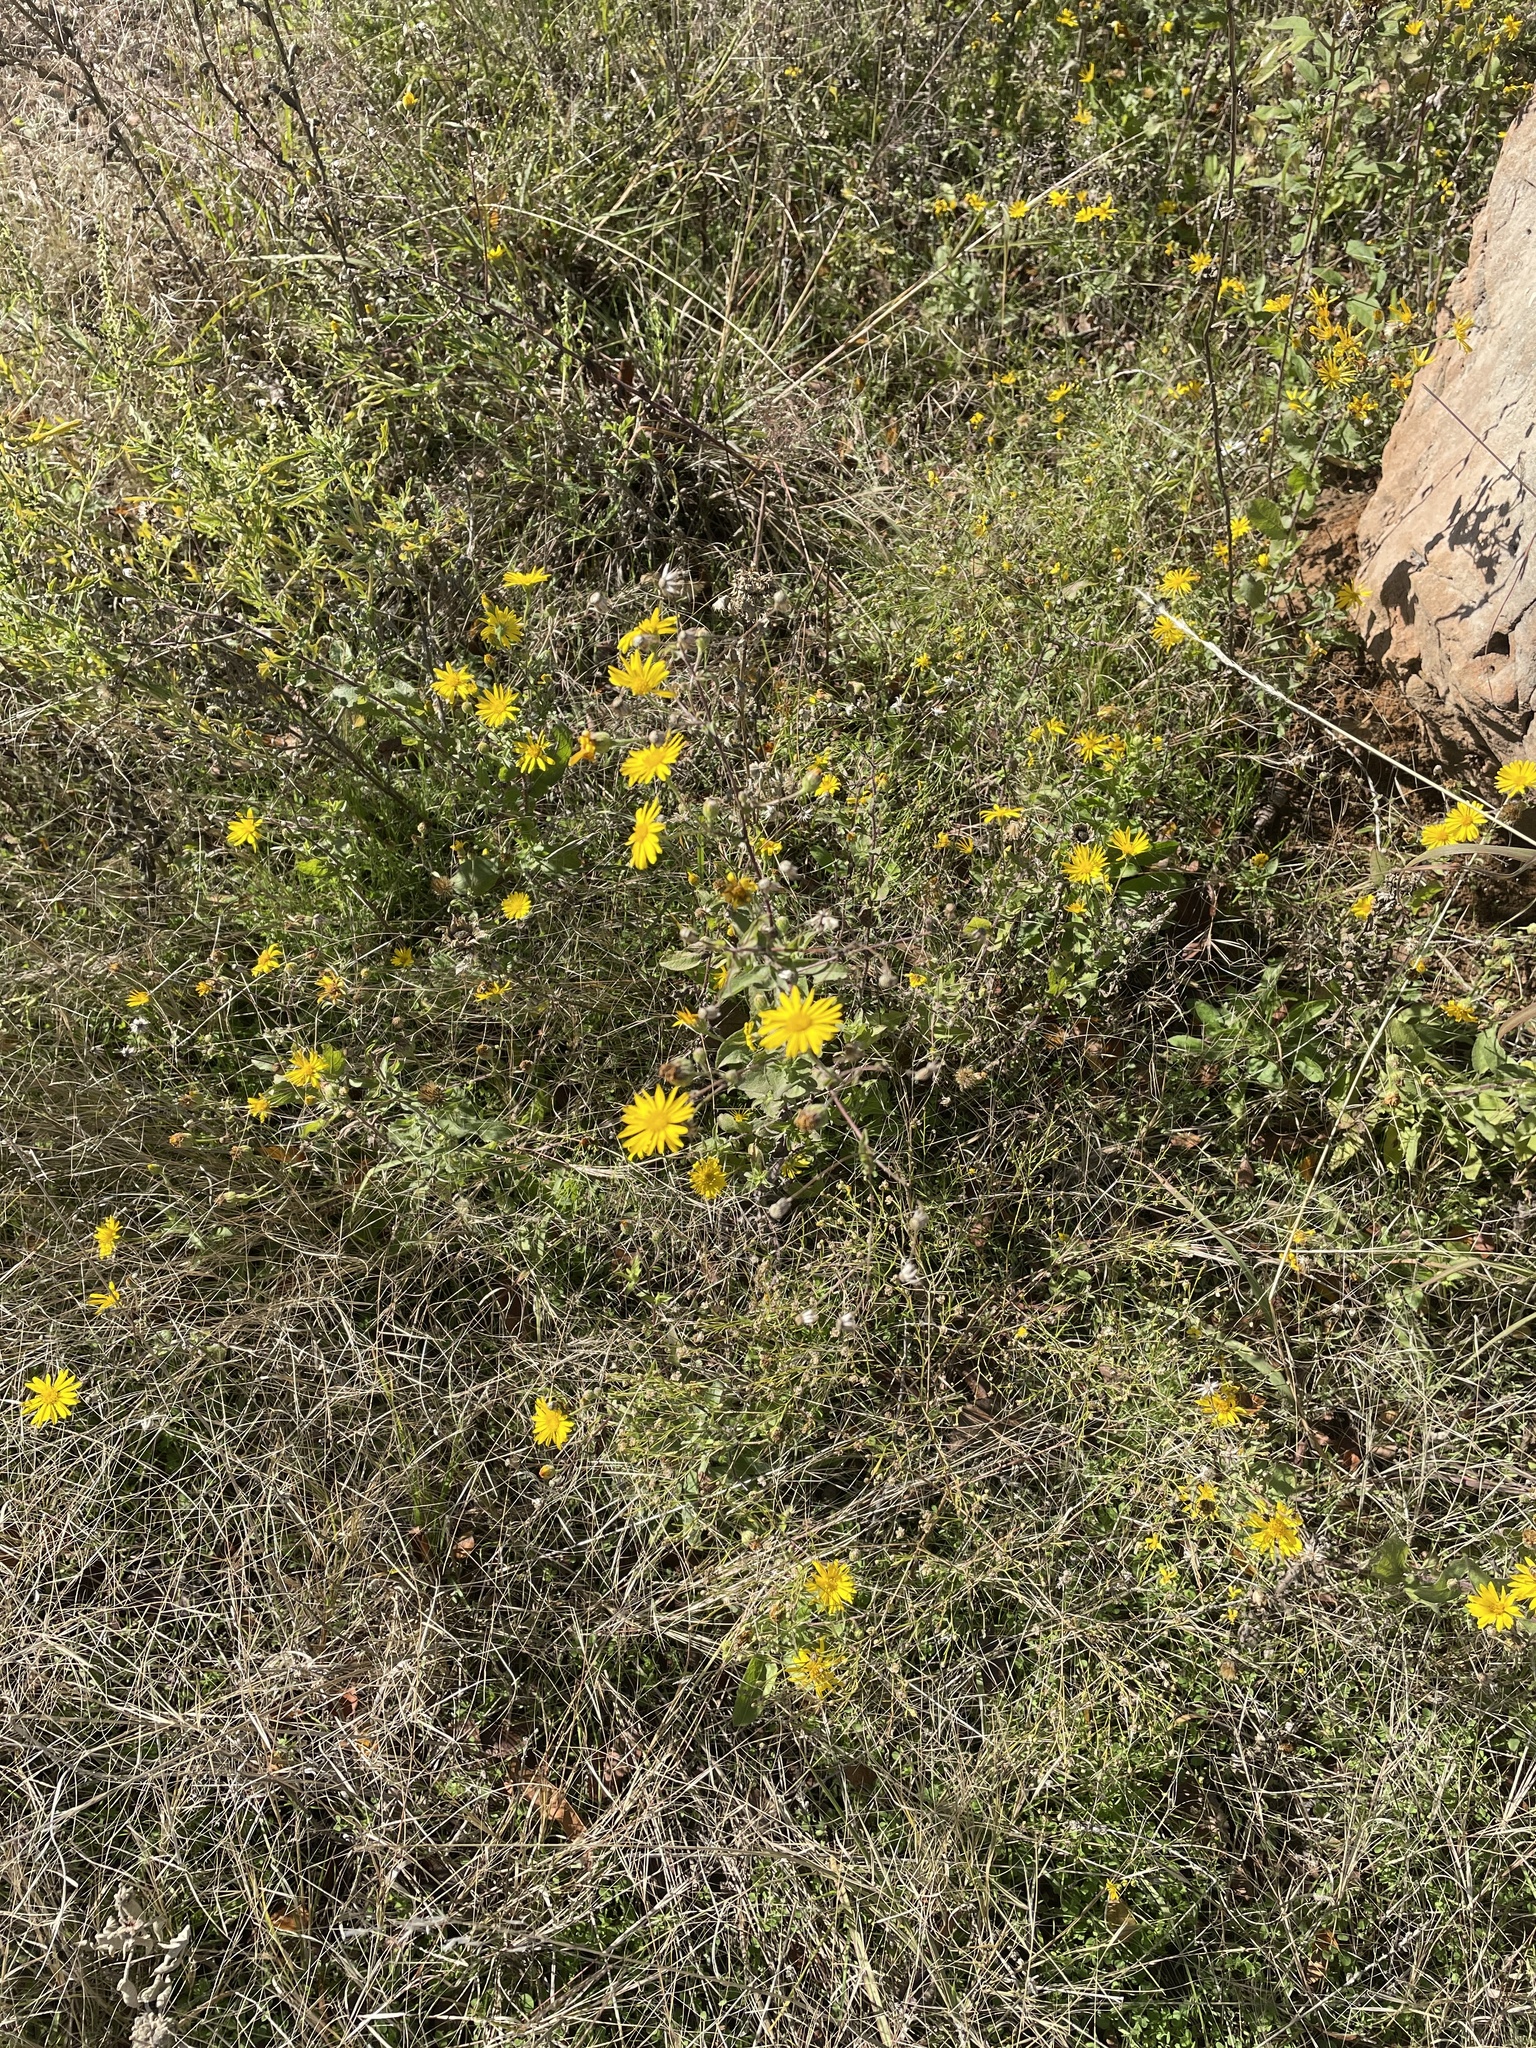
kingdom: Plantae
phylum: Tracheophyta
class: Magnoliopsida
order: Asterales
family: Asteraceae
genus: Heterotheca
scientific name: Heterotheca subaxillaris
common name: Camphorweed
